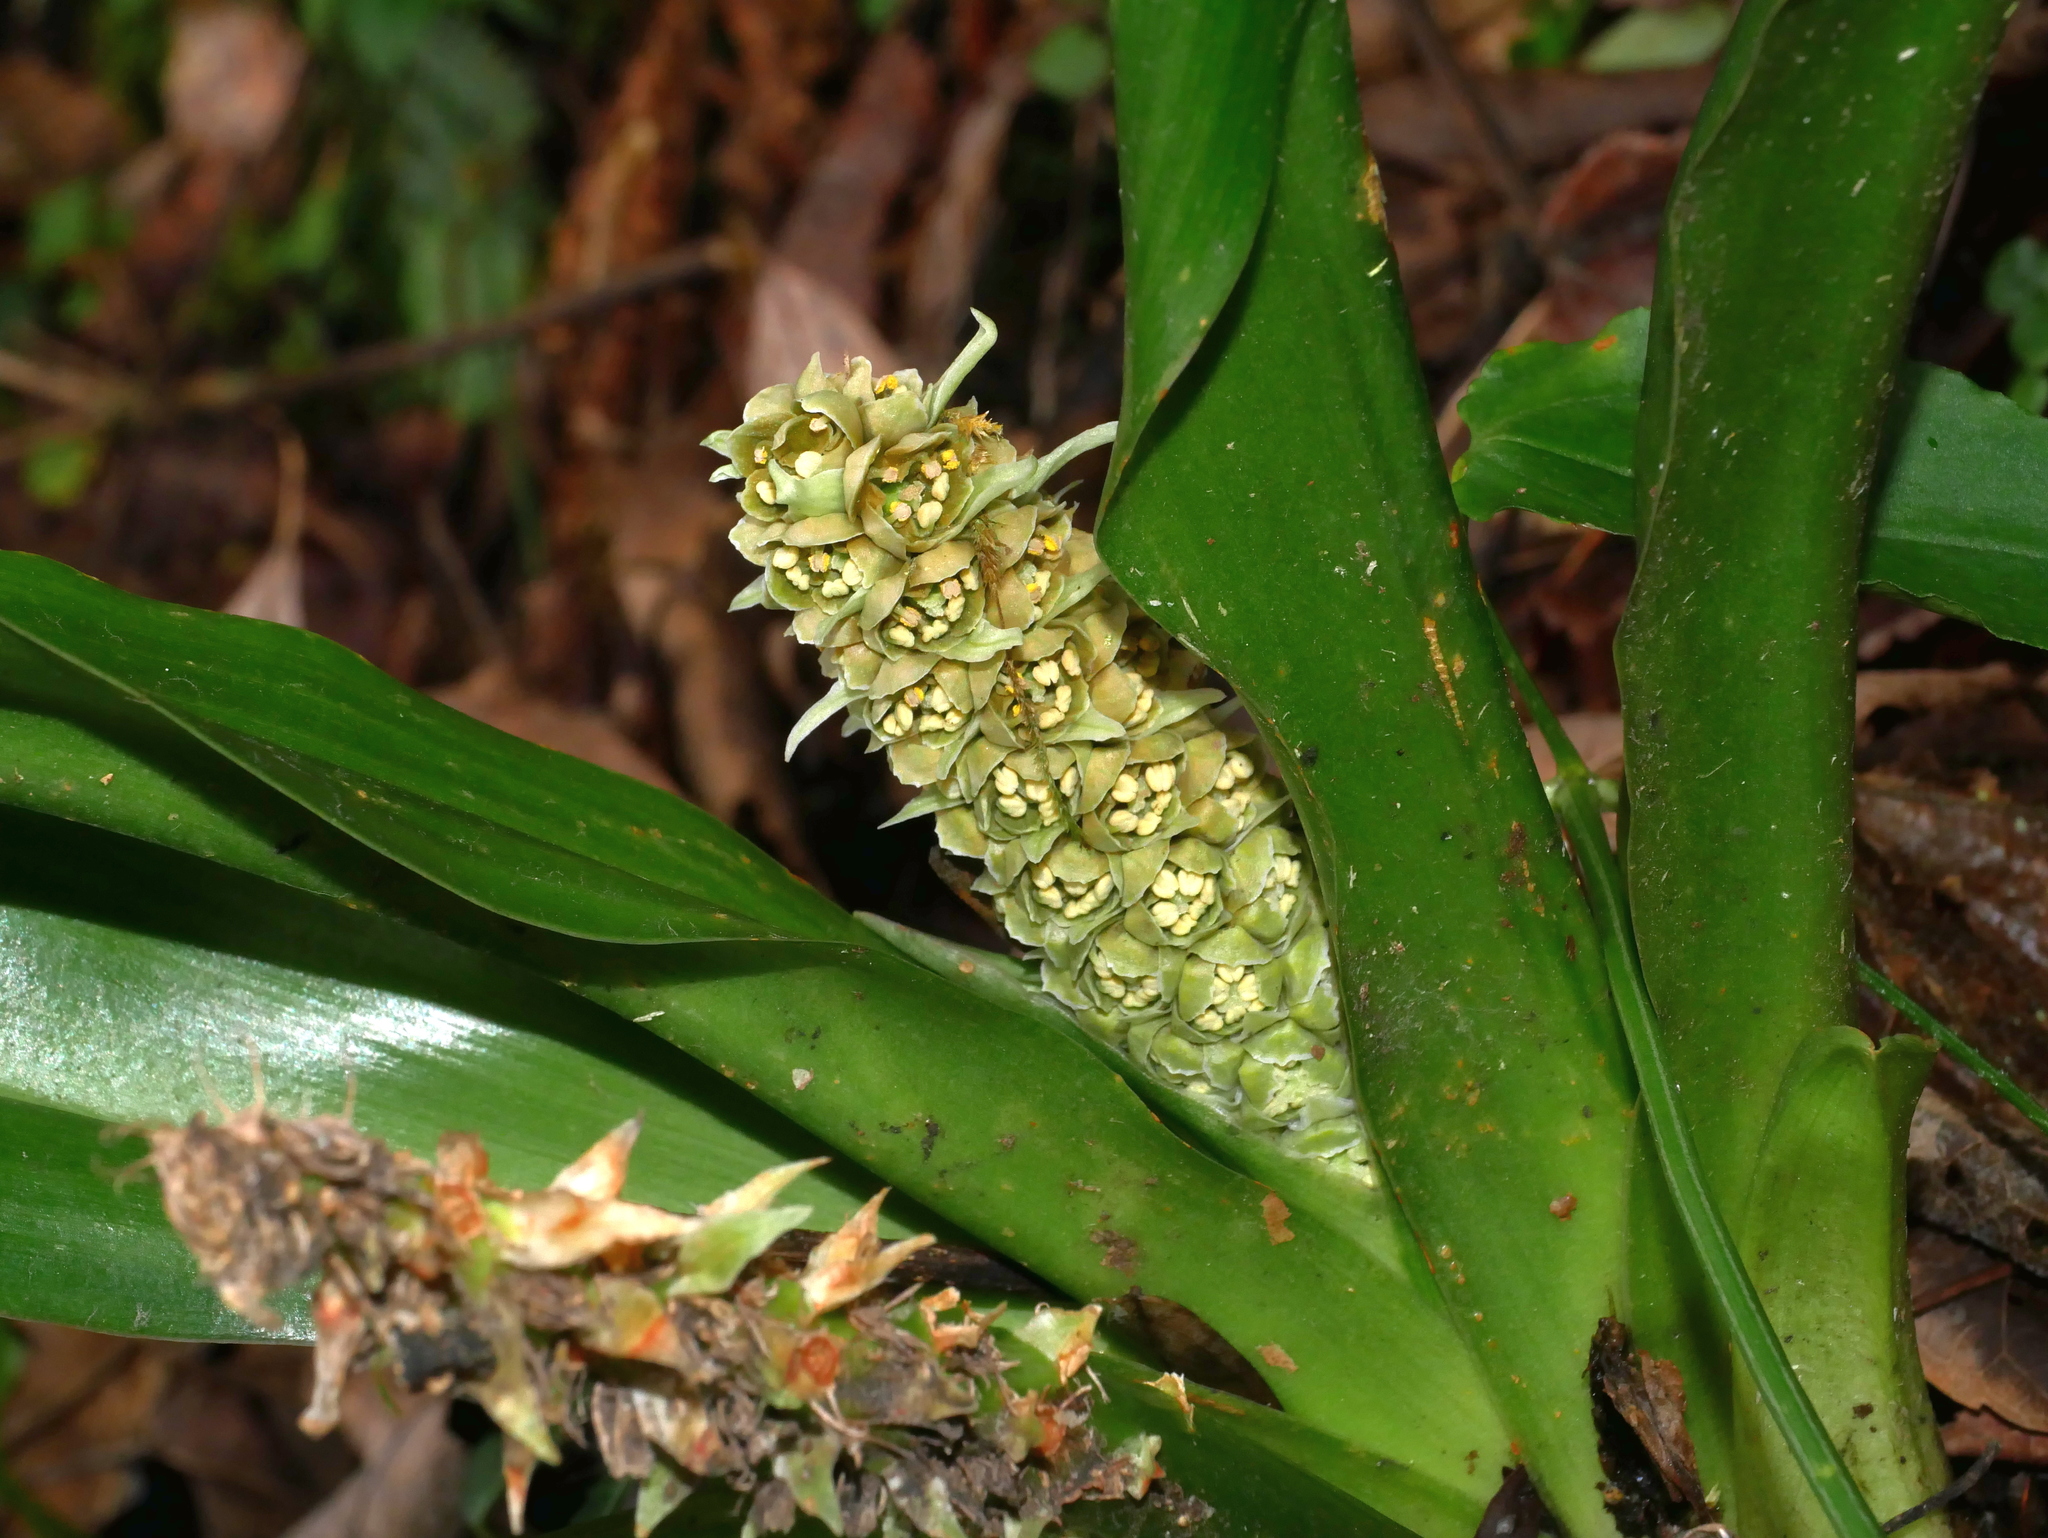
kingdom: Plantae
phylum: Tracheophyta
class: Liliopsida
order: Asparagales
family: Asparagaceae
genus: Rohdea
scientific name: Rohdea fargesii
